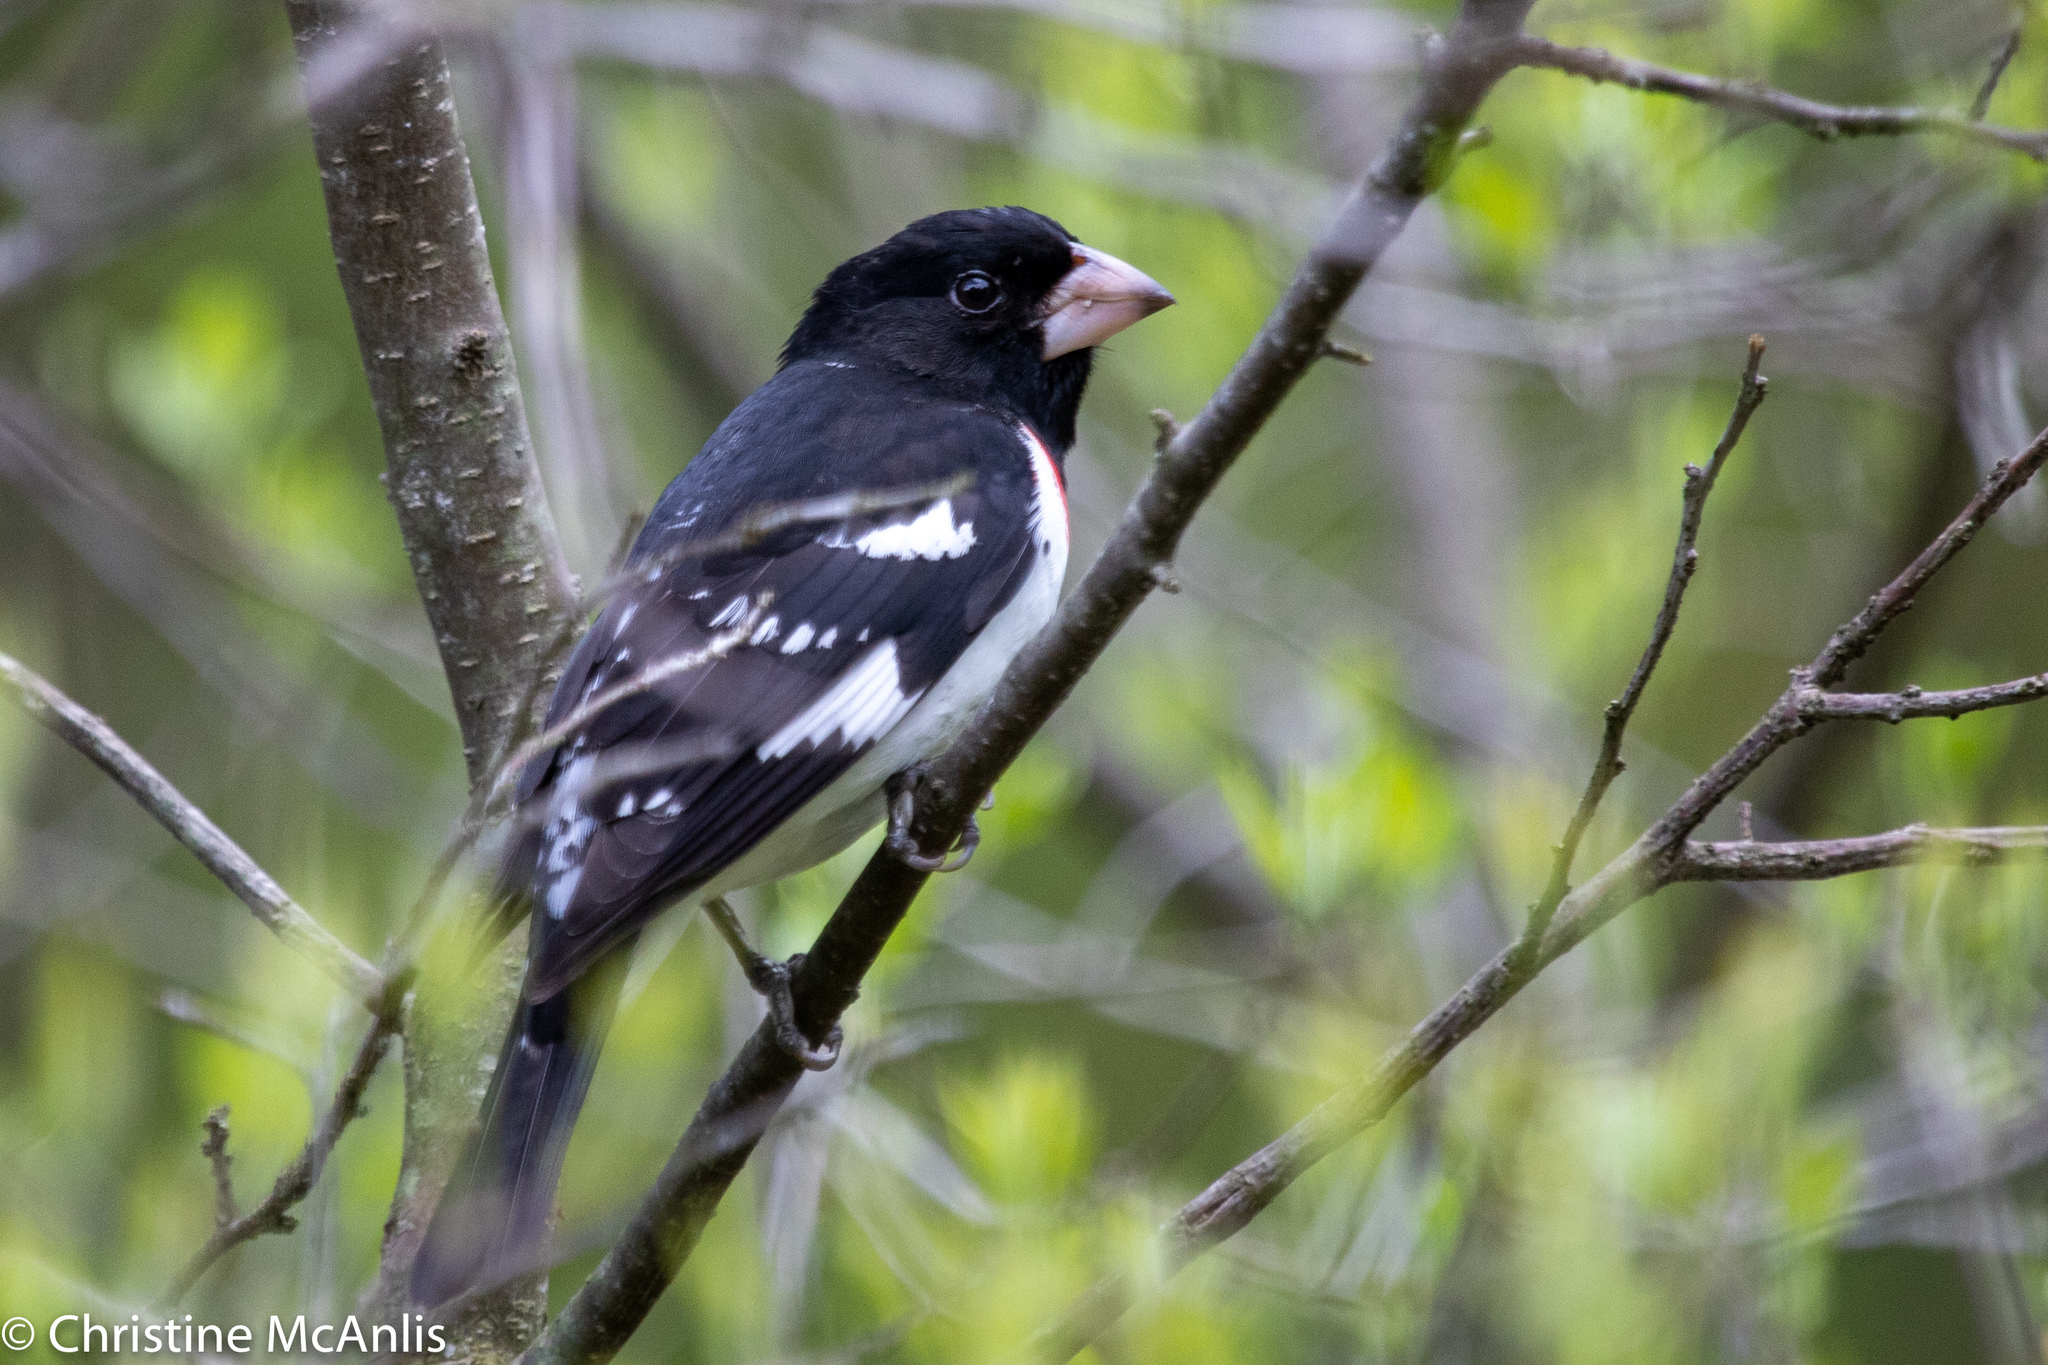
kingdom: Animalia
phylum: Chordata
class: Aves
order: Passeriformes
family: Cardinalidae
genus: Pheucticus
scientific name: Pheucticus ludovicianus
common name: Rose-breasted grosbeak
